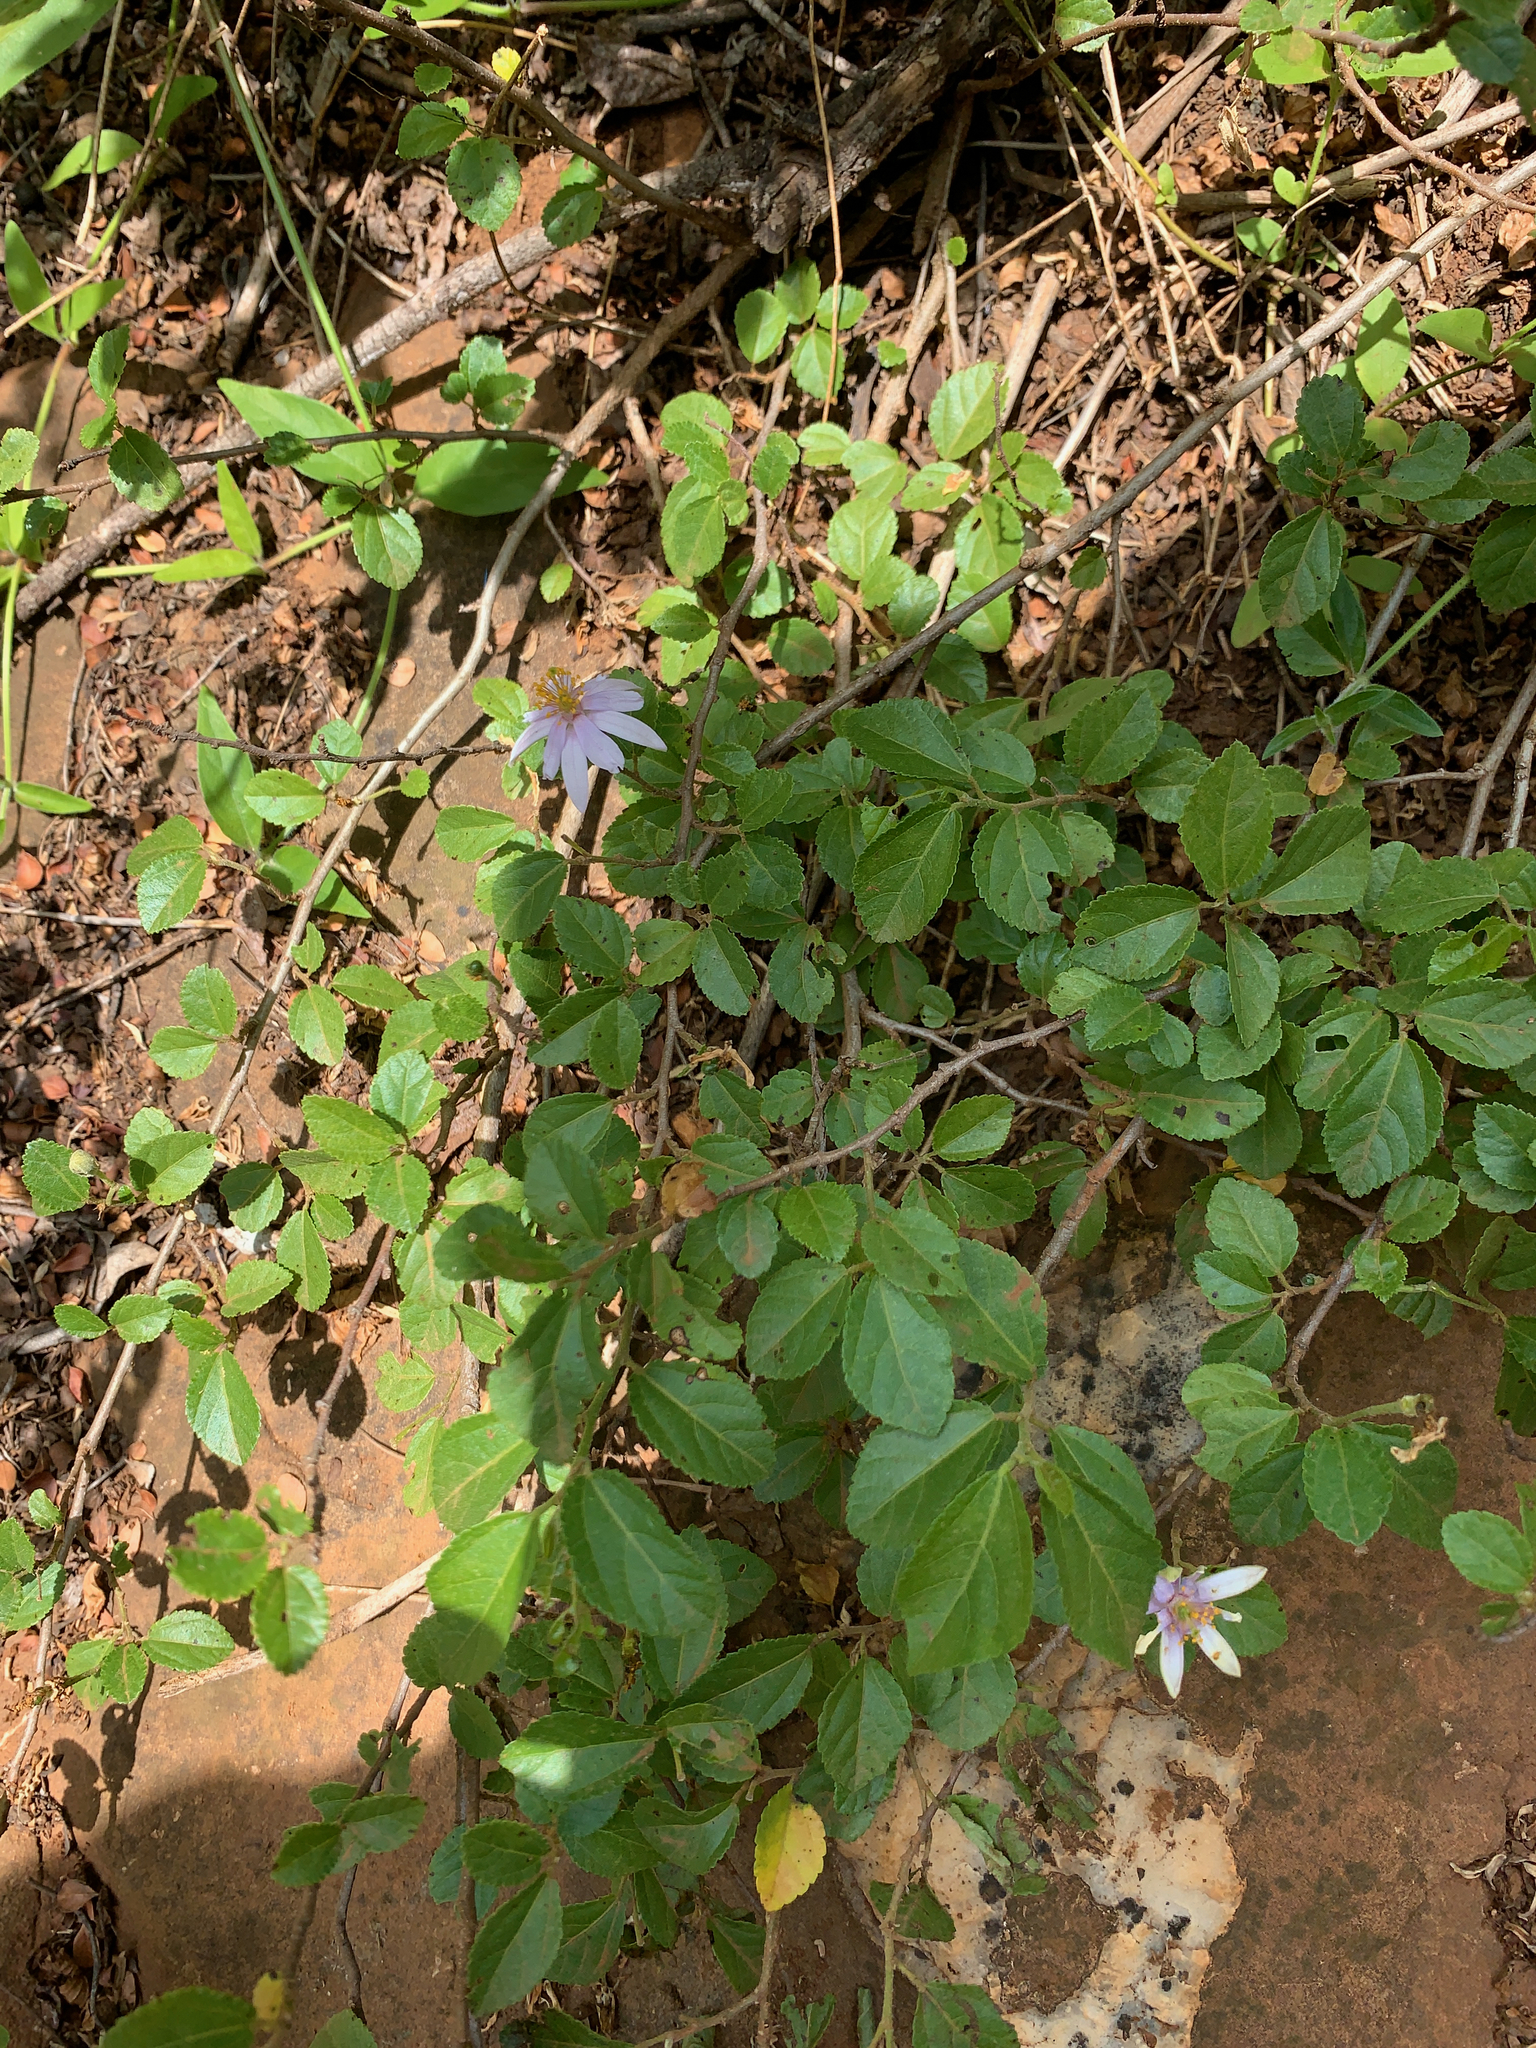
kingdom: Plantae
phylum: Tracheophyta
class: Magnoliopsida
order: Malvales
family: Malvaceae
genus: Grewia
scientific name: Grewia occidentalis
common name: Crossberry
